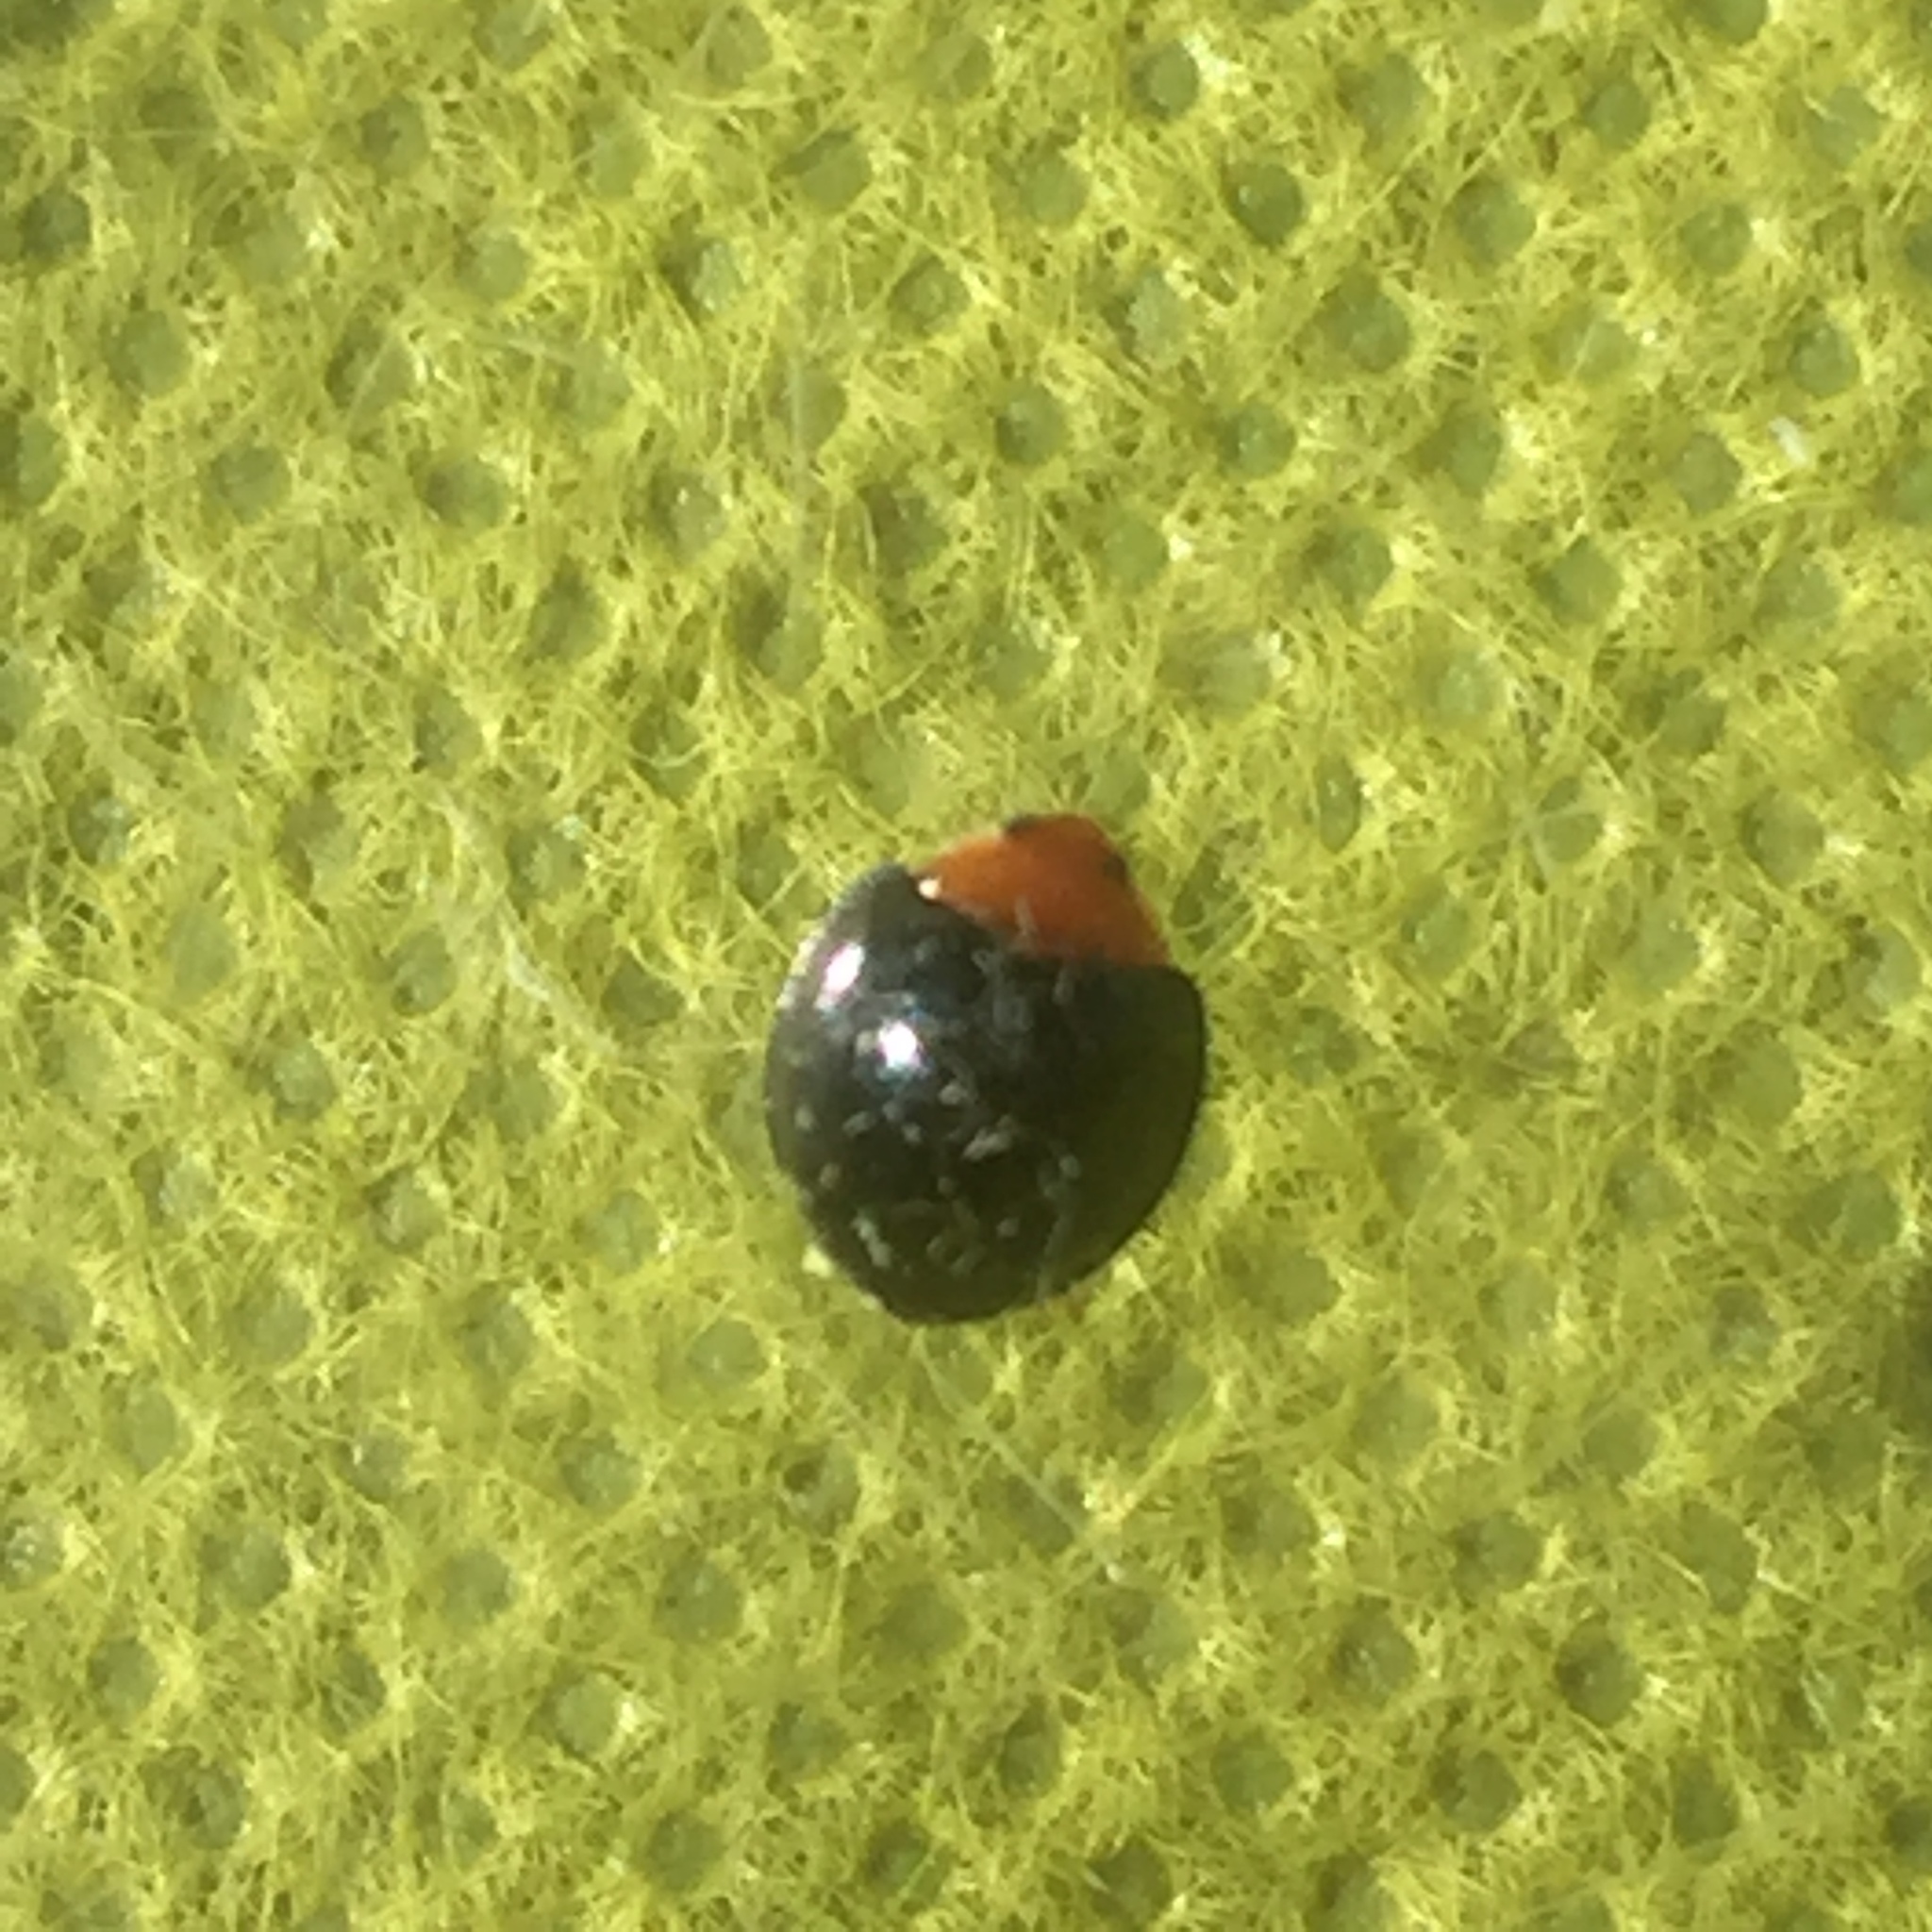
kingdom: Animalia
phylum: Arthropoda
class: Insecta
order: Coleoptera
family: Coccinellidae
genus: Exochomus
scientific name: Exochomus nigripennis
